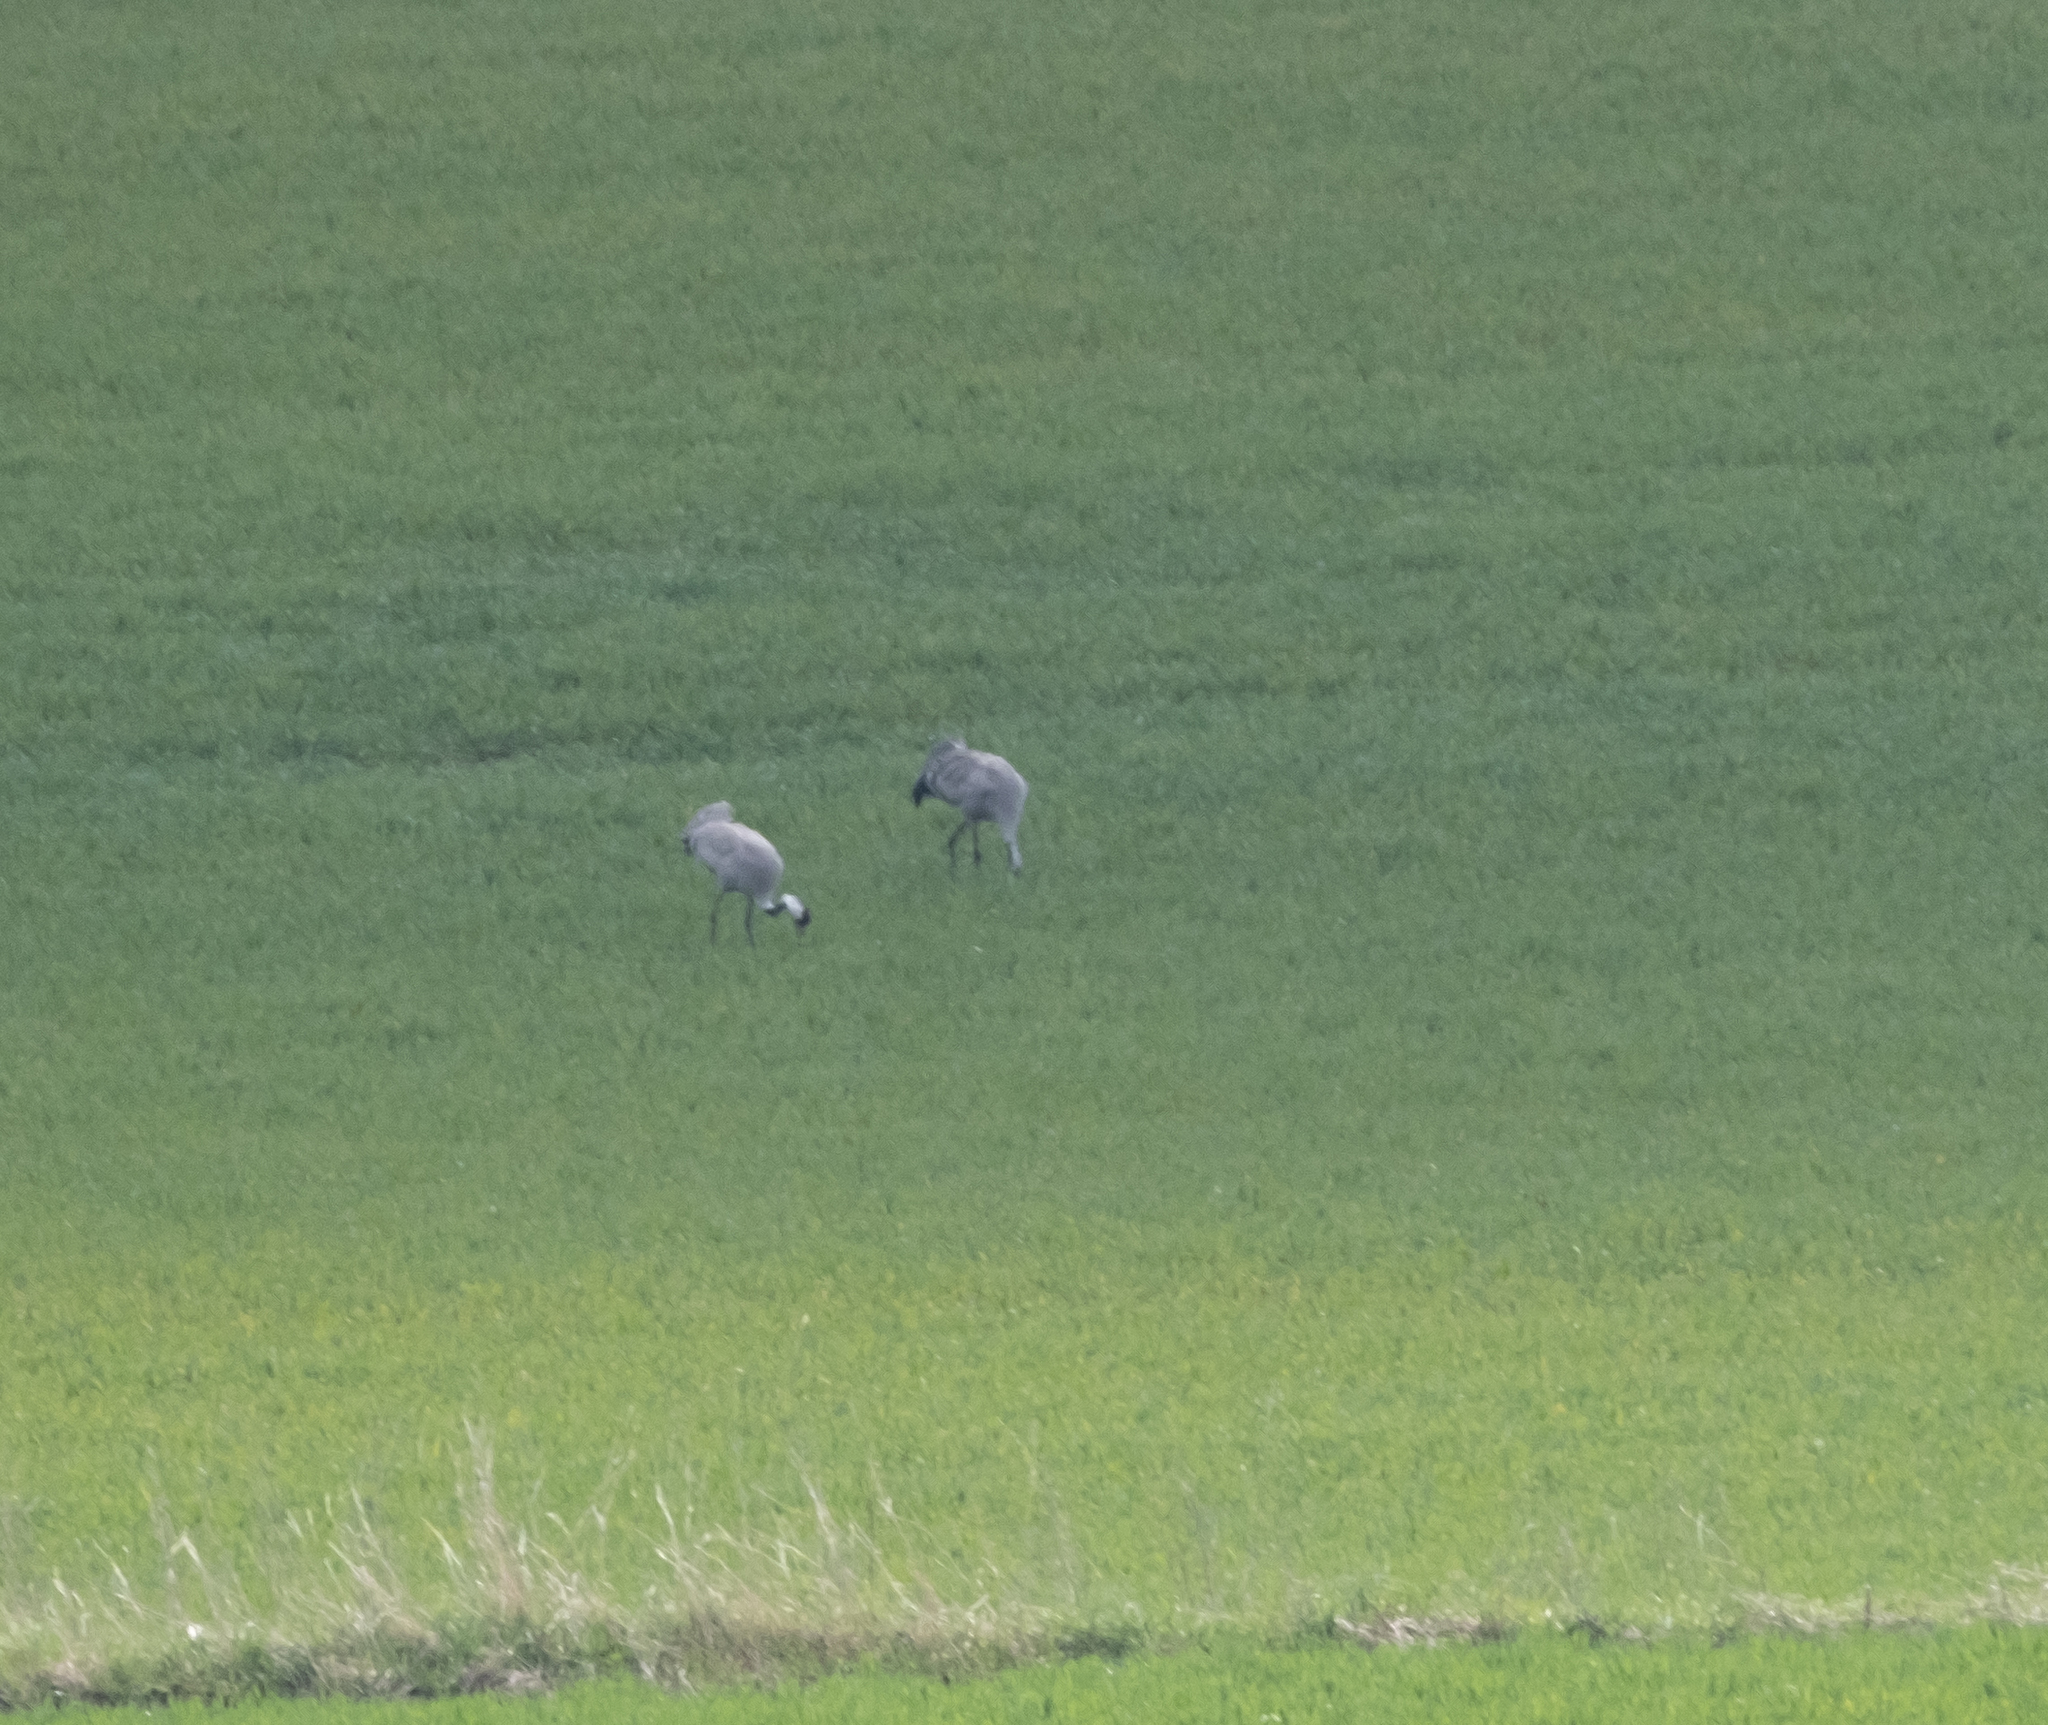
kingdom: Animalia
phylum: Chordata
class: Aves
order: Gruiformes
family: Gruidae
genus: Grus
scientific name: Grus grus
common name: Common crane
